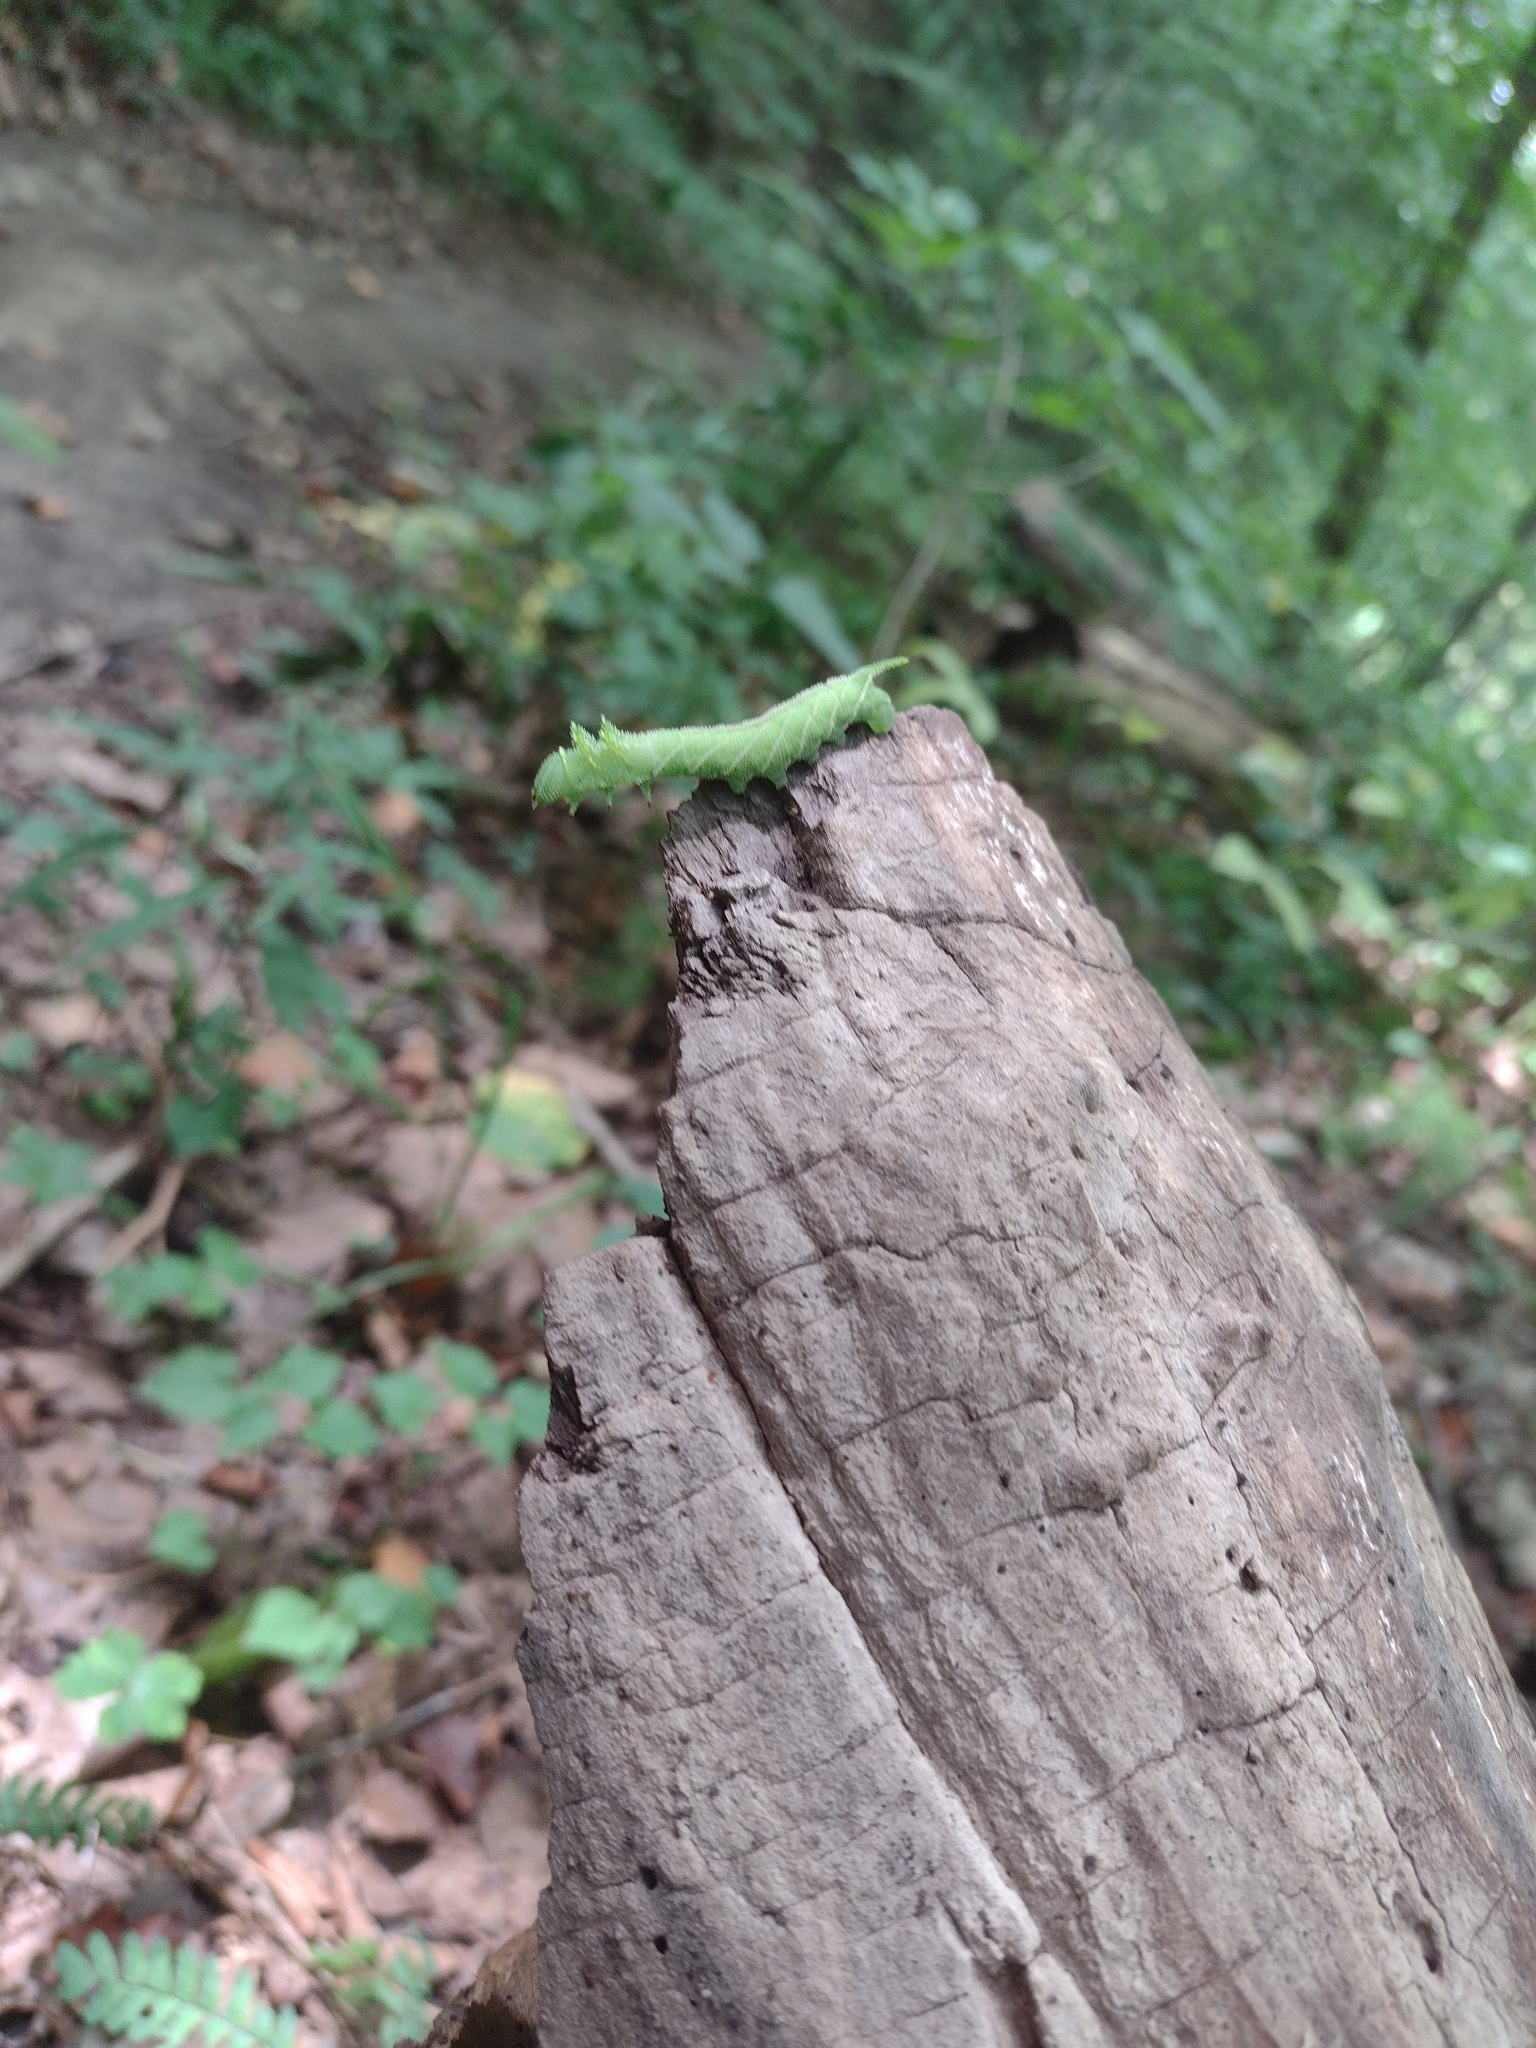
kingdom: Animalia
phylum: Arthropoda
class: Insecta
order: Lepidoptera
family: Sphingidae
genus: Ceratomia
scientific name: Ceratomia amyntor
